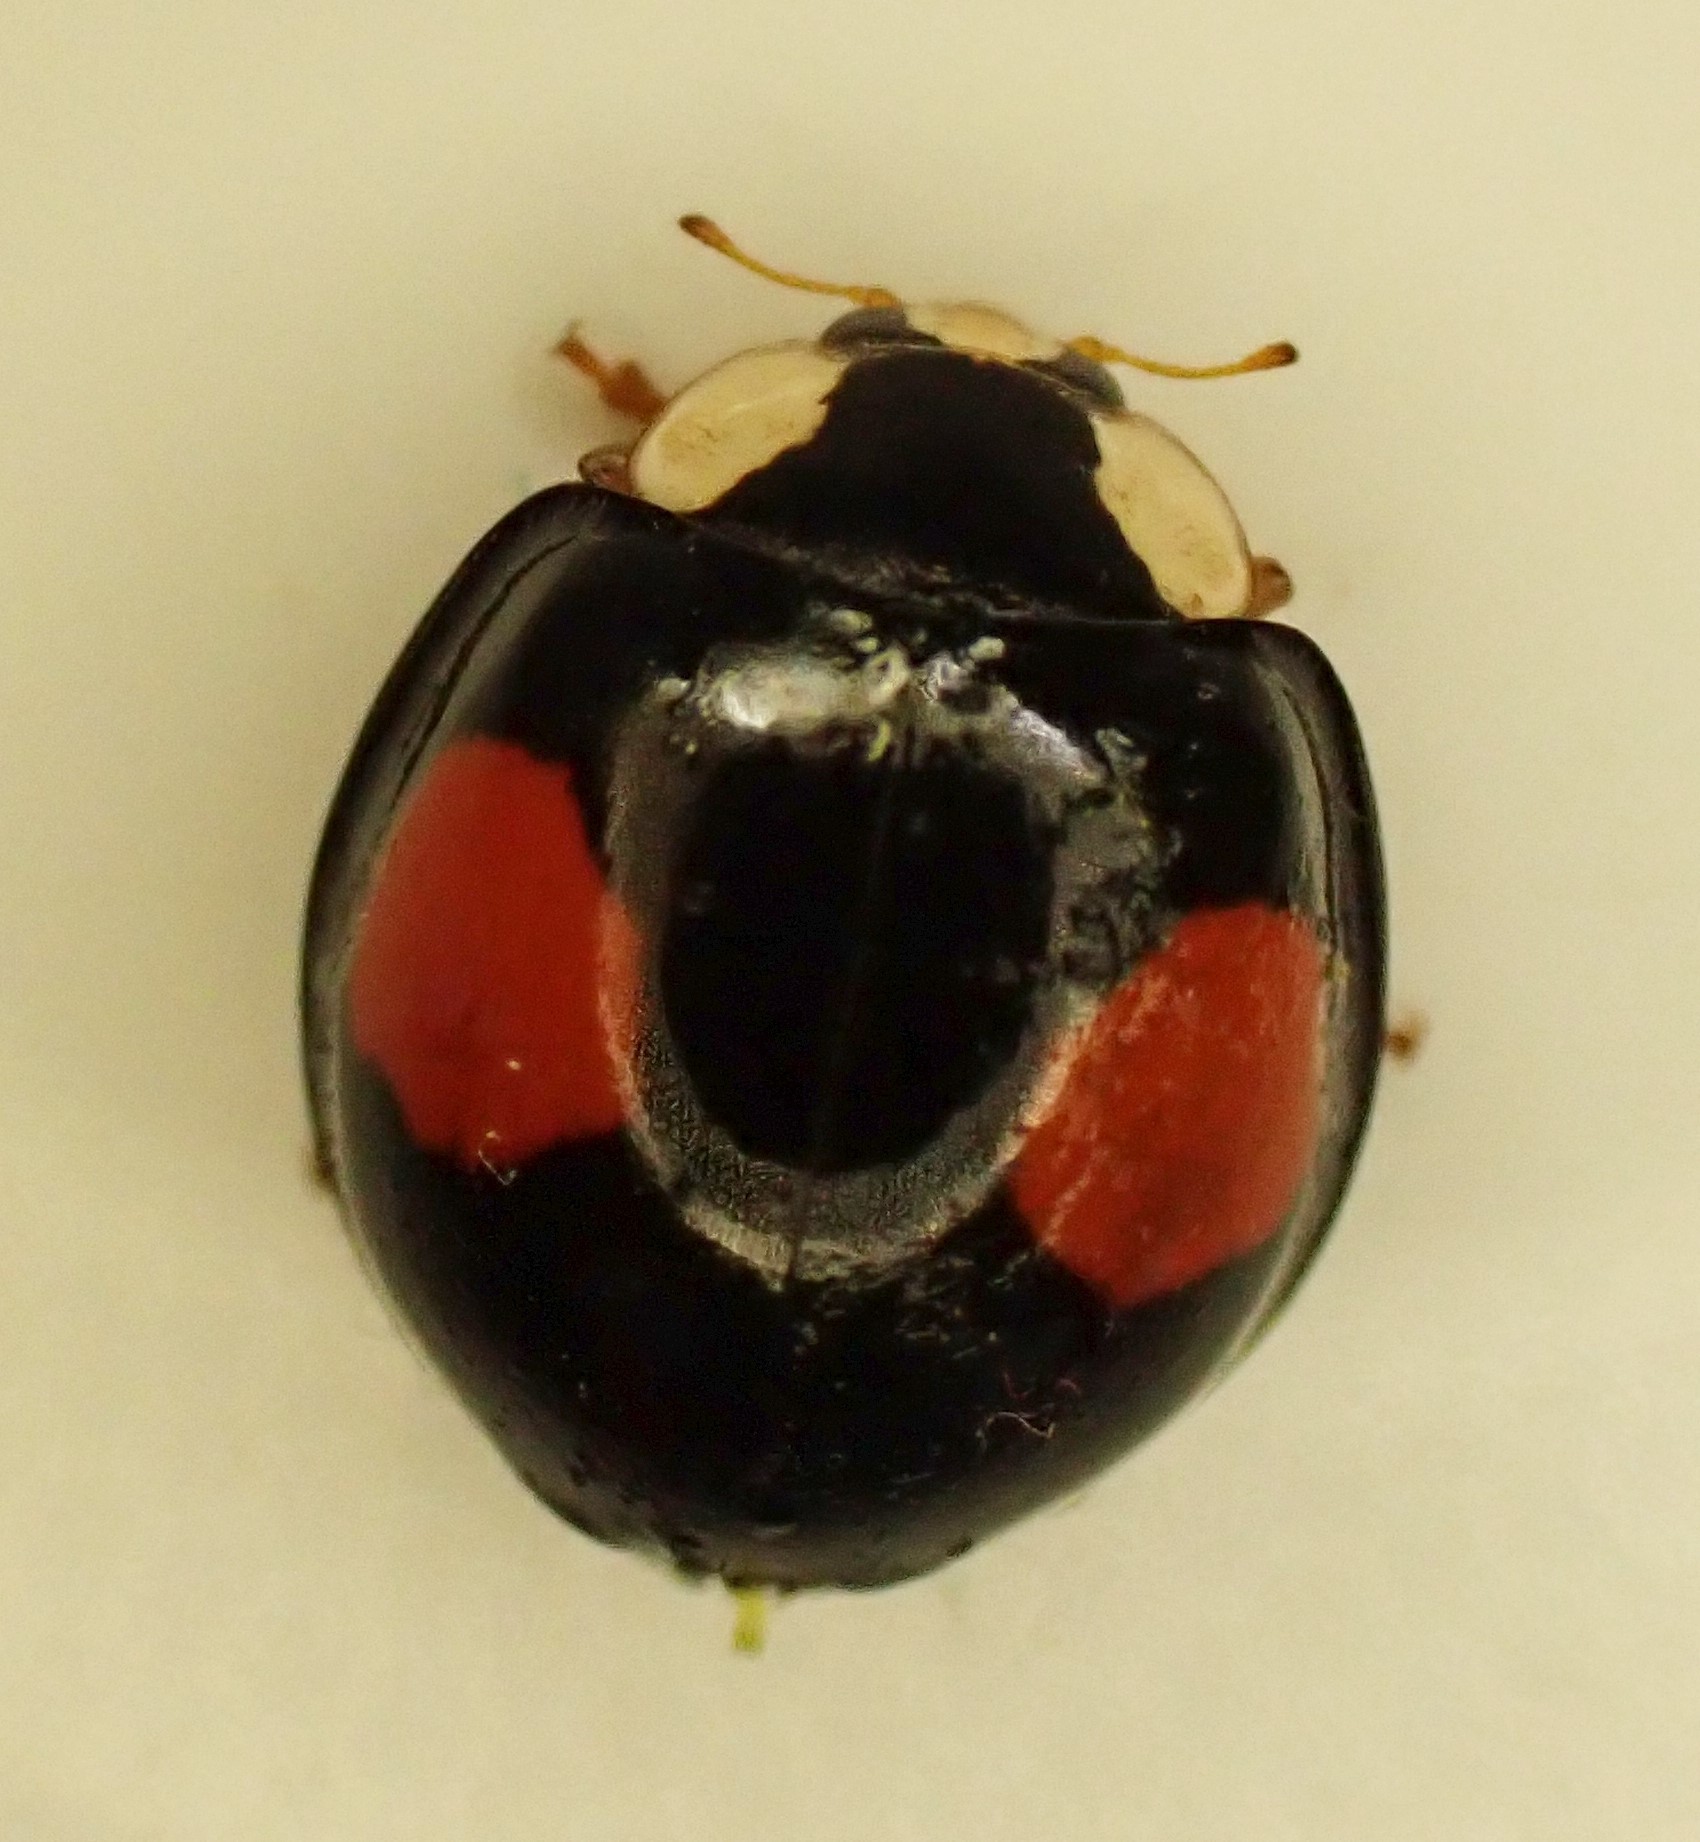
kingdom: Animalia
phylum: Arthropoda
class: Insecta
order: Coleoptera
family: Coccinellidae
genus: Harmonia
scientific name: Harmonia axyridis
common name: Harlequin ladybird
